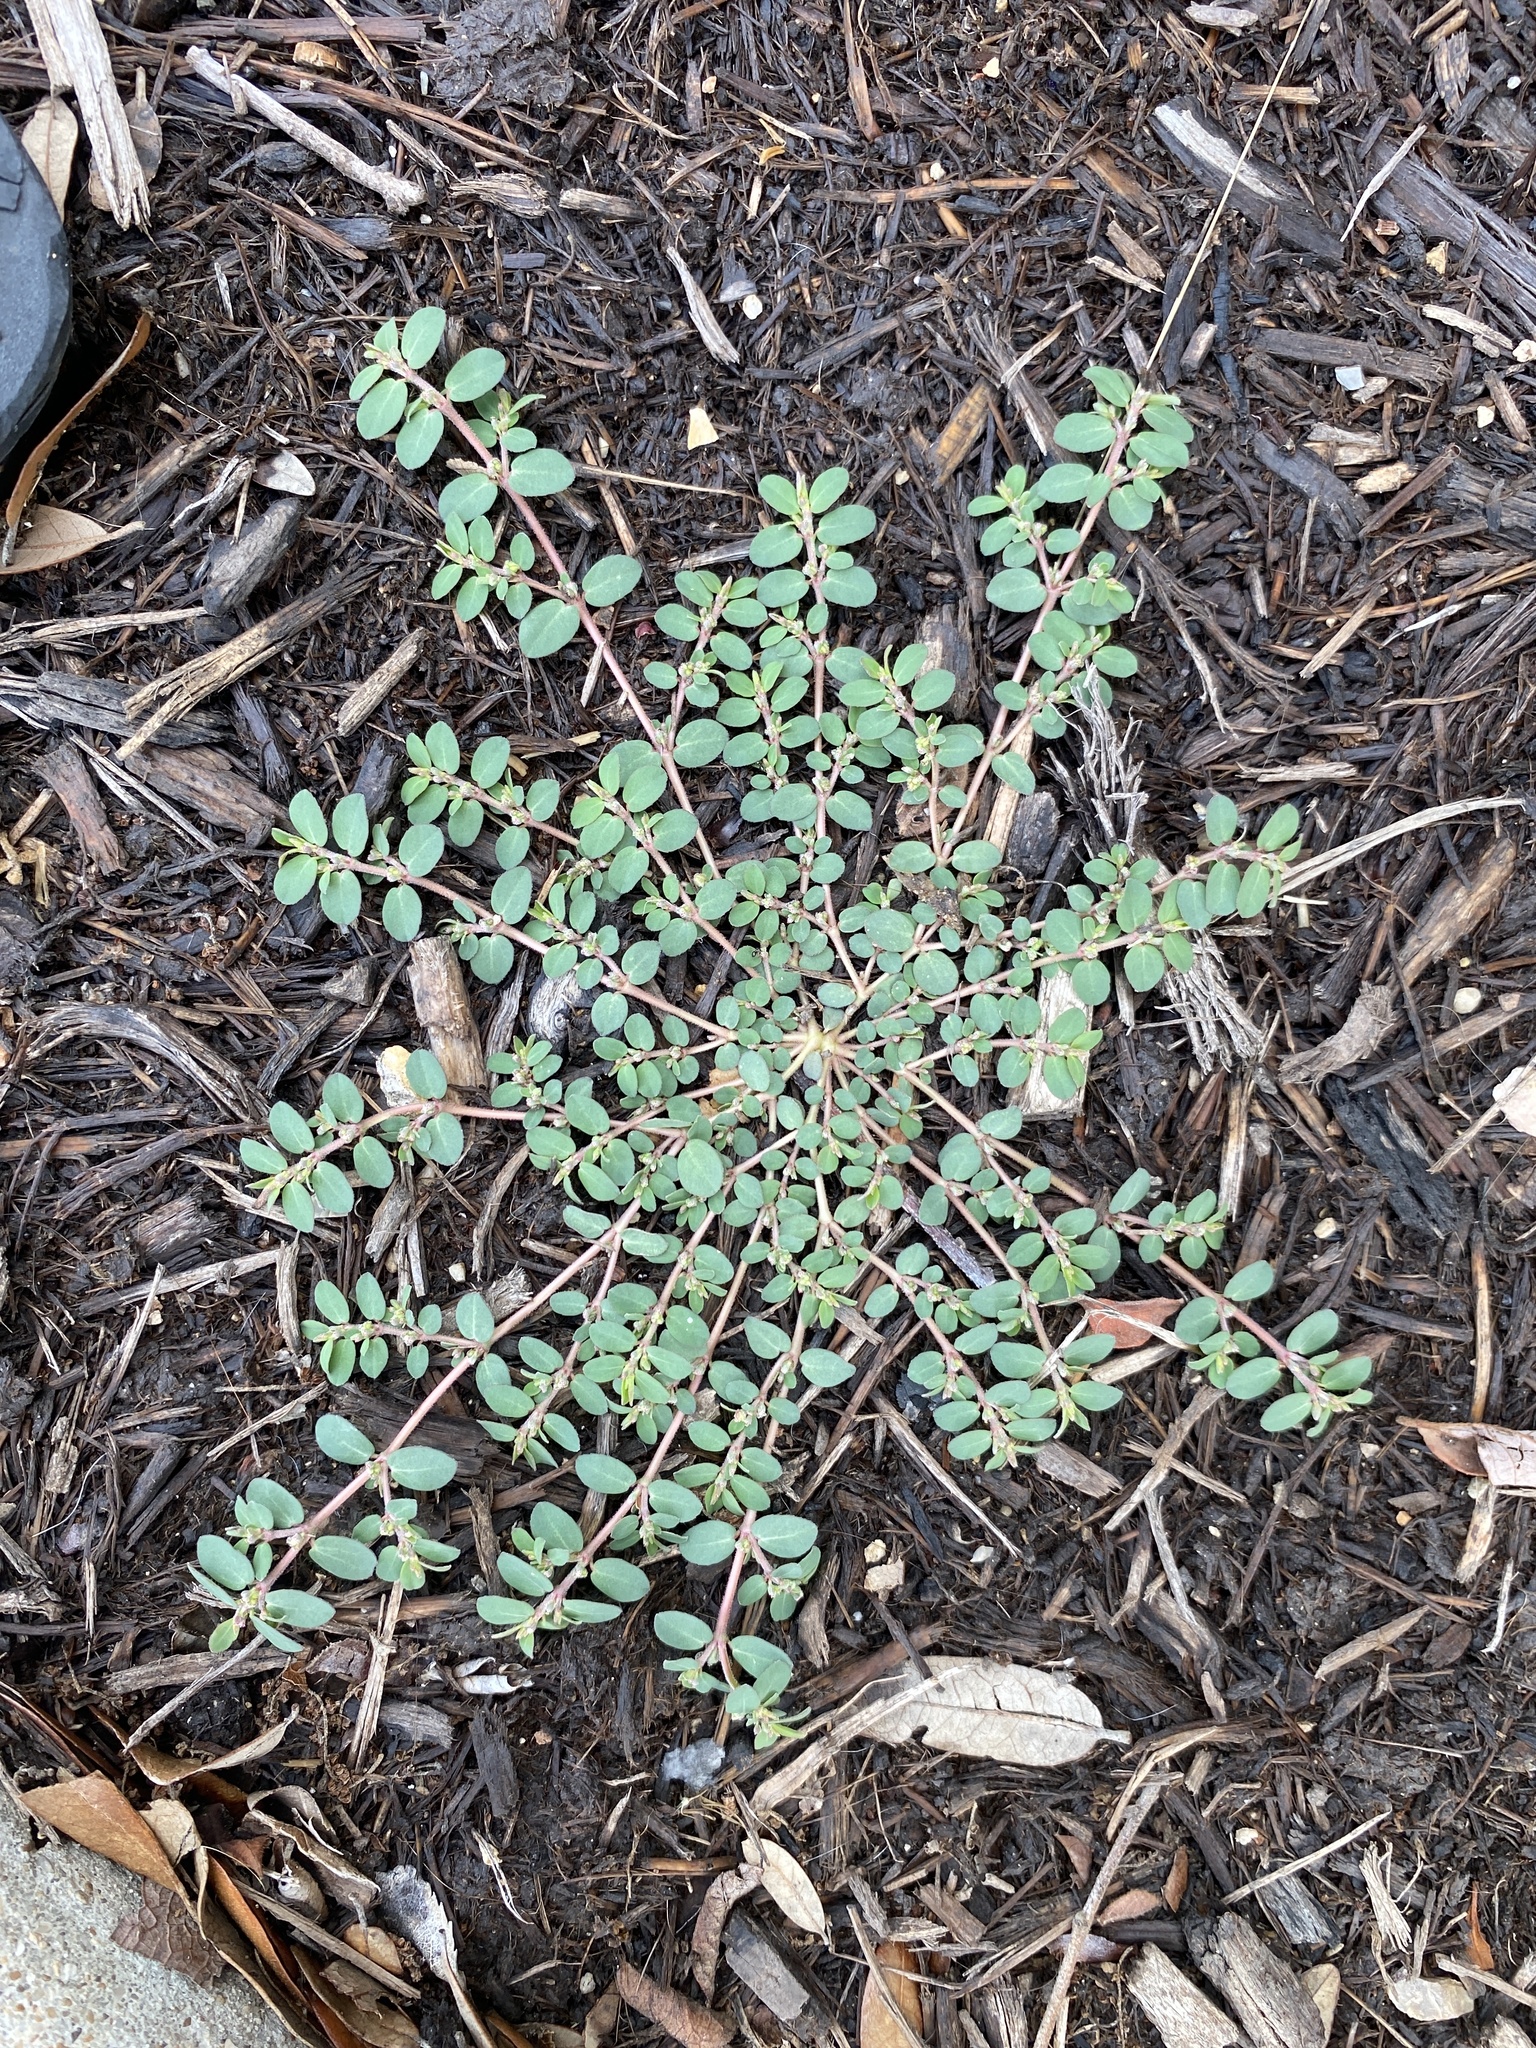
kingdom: Plantae
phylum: Tracheophyta
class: Magnoliopsida
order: Malpighiales
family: Euphorbiaceae
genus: Euphorbia
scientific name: Euphorbia prostrata
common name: Prostrate sandmat
